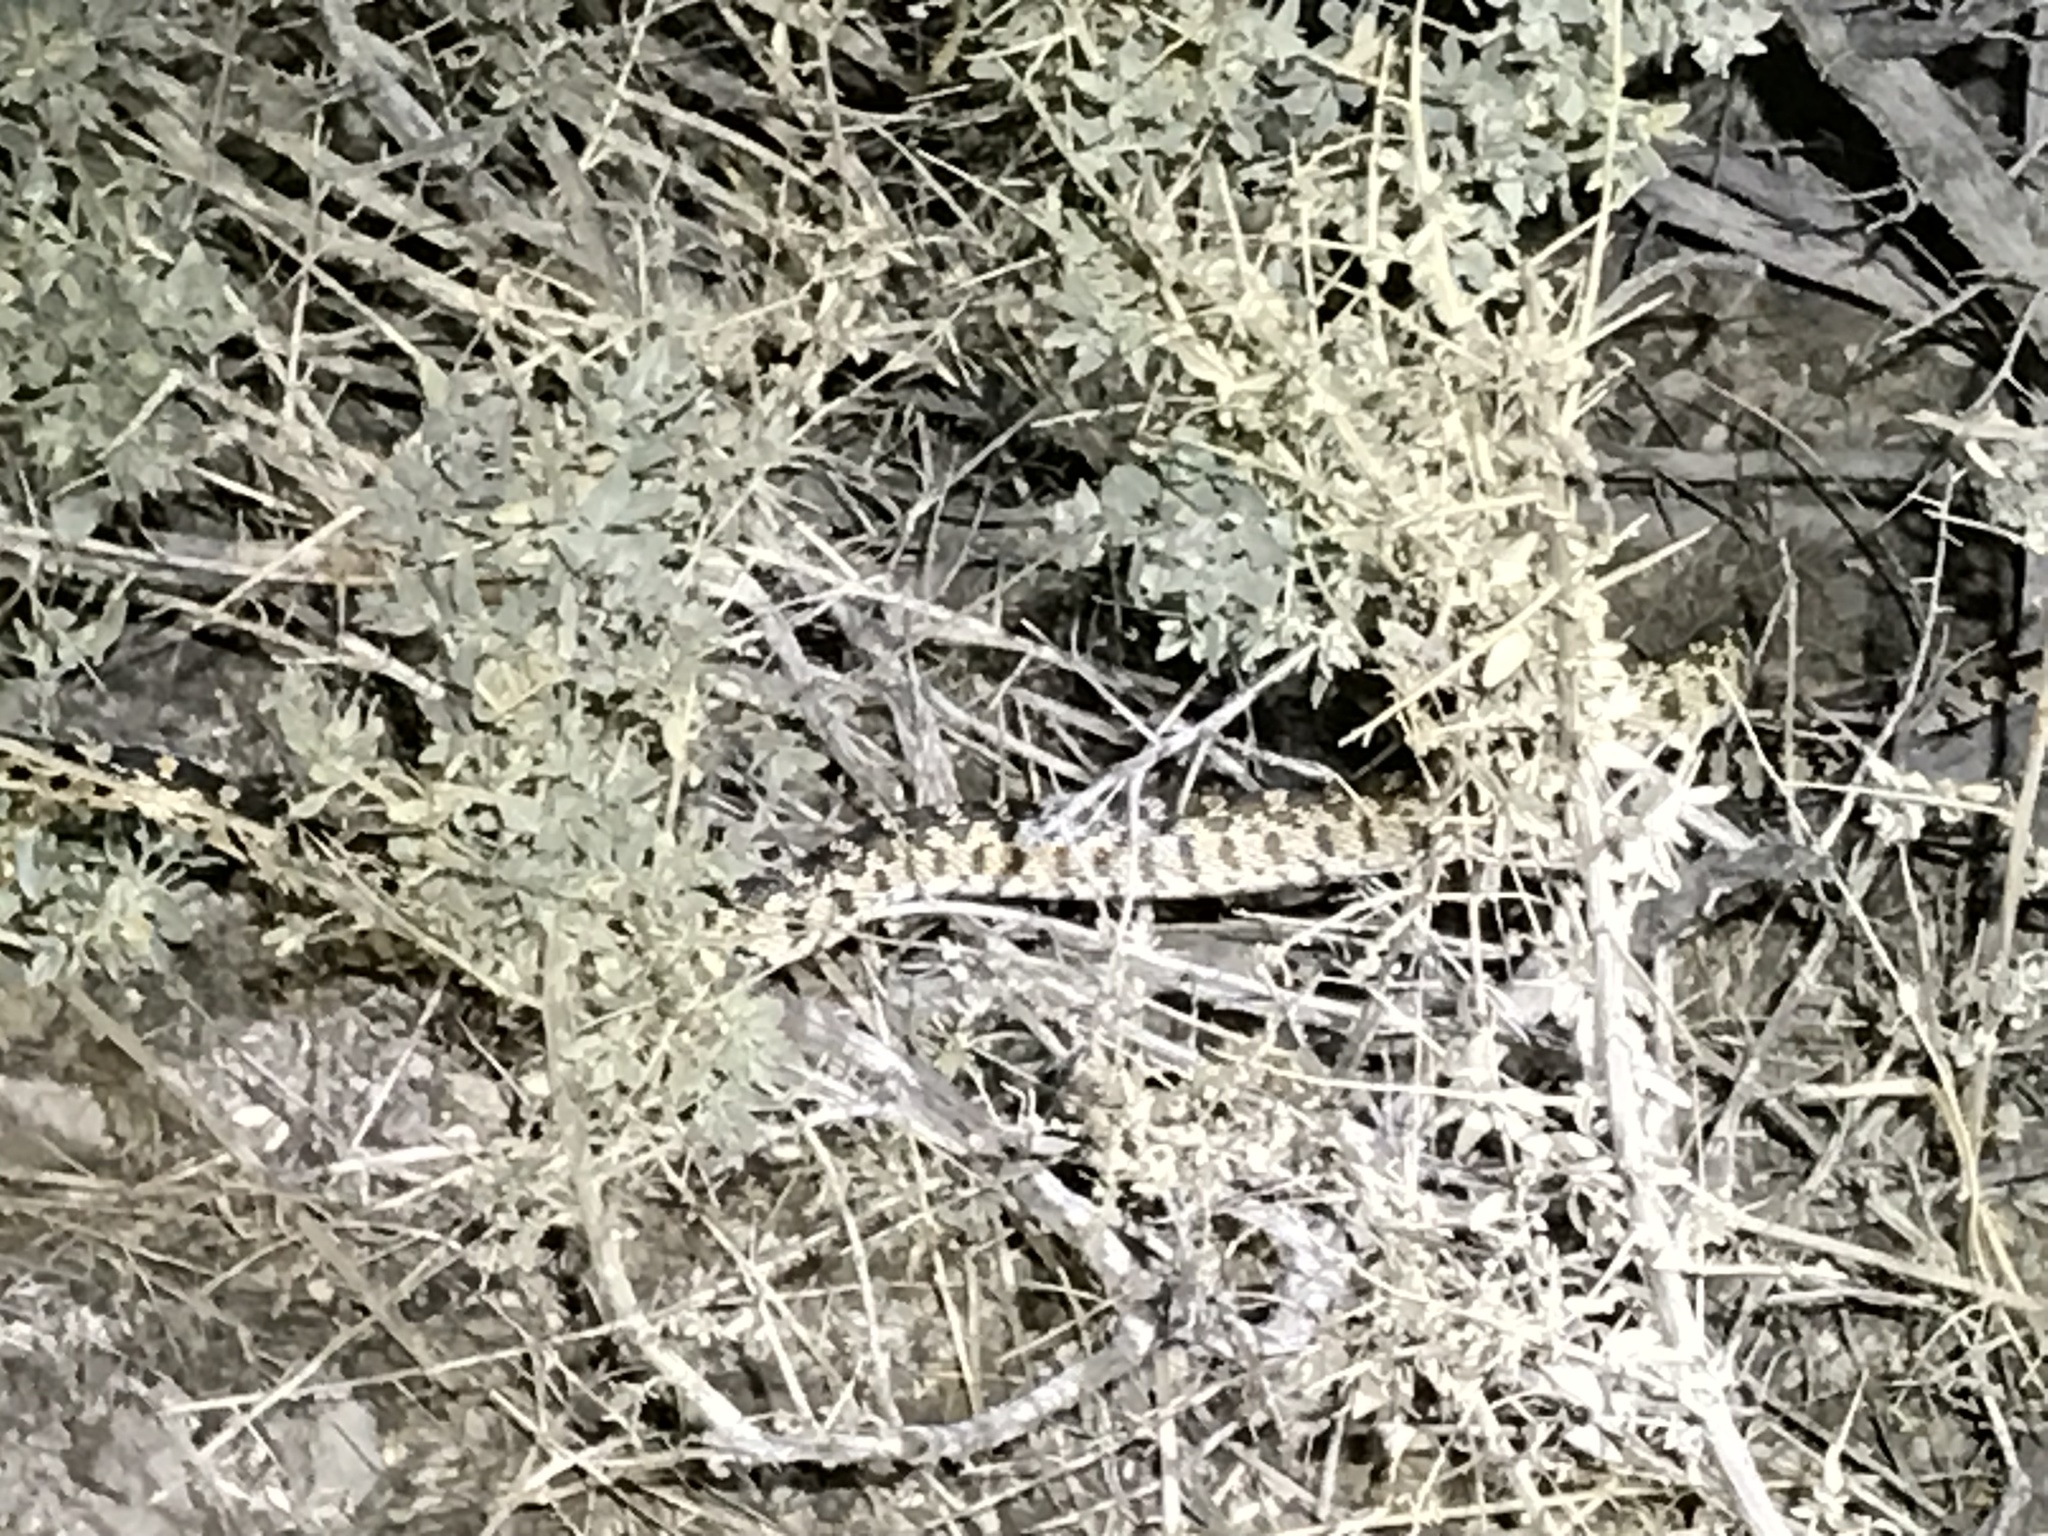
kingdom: Animalia
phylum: Chordata
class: Squamata
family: Colubridae
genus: Pituophis
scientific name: Pituophis catenifer
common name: Gopher snake
